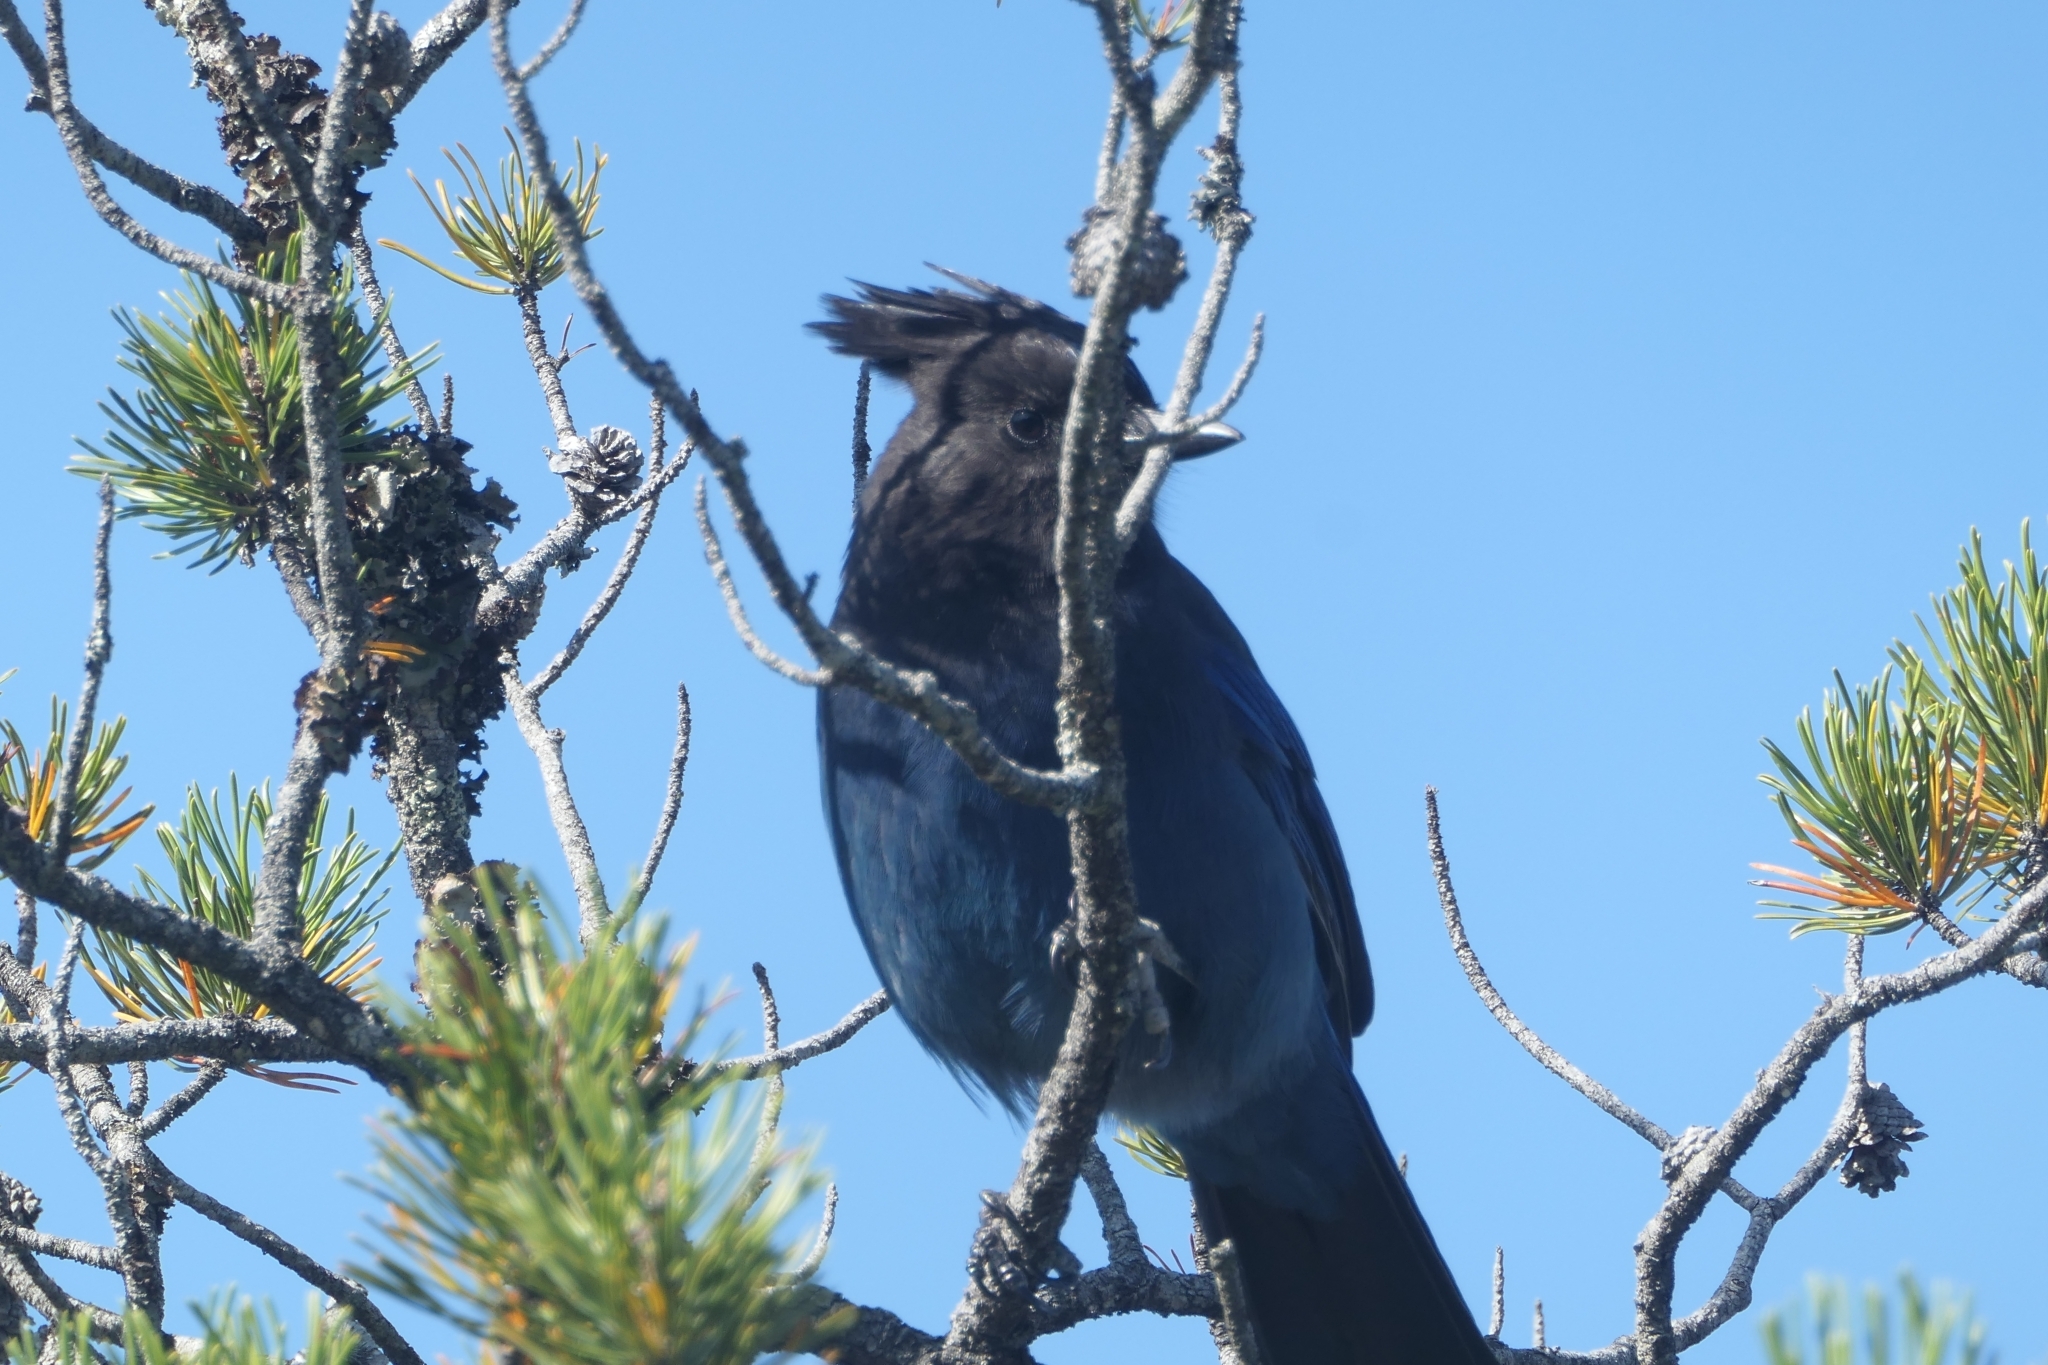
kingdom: Animalia
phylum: Chordata
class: Aves
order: Passeriformes
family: Corvidae
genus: Cyanocitta
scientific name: Cyanocitta stelleri
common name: Steller's jay
